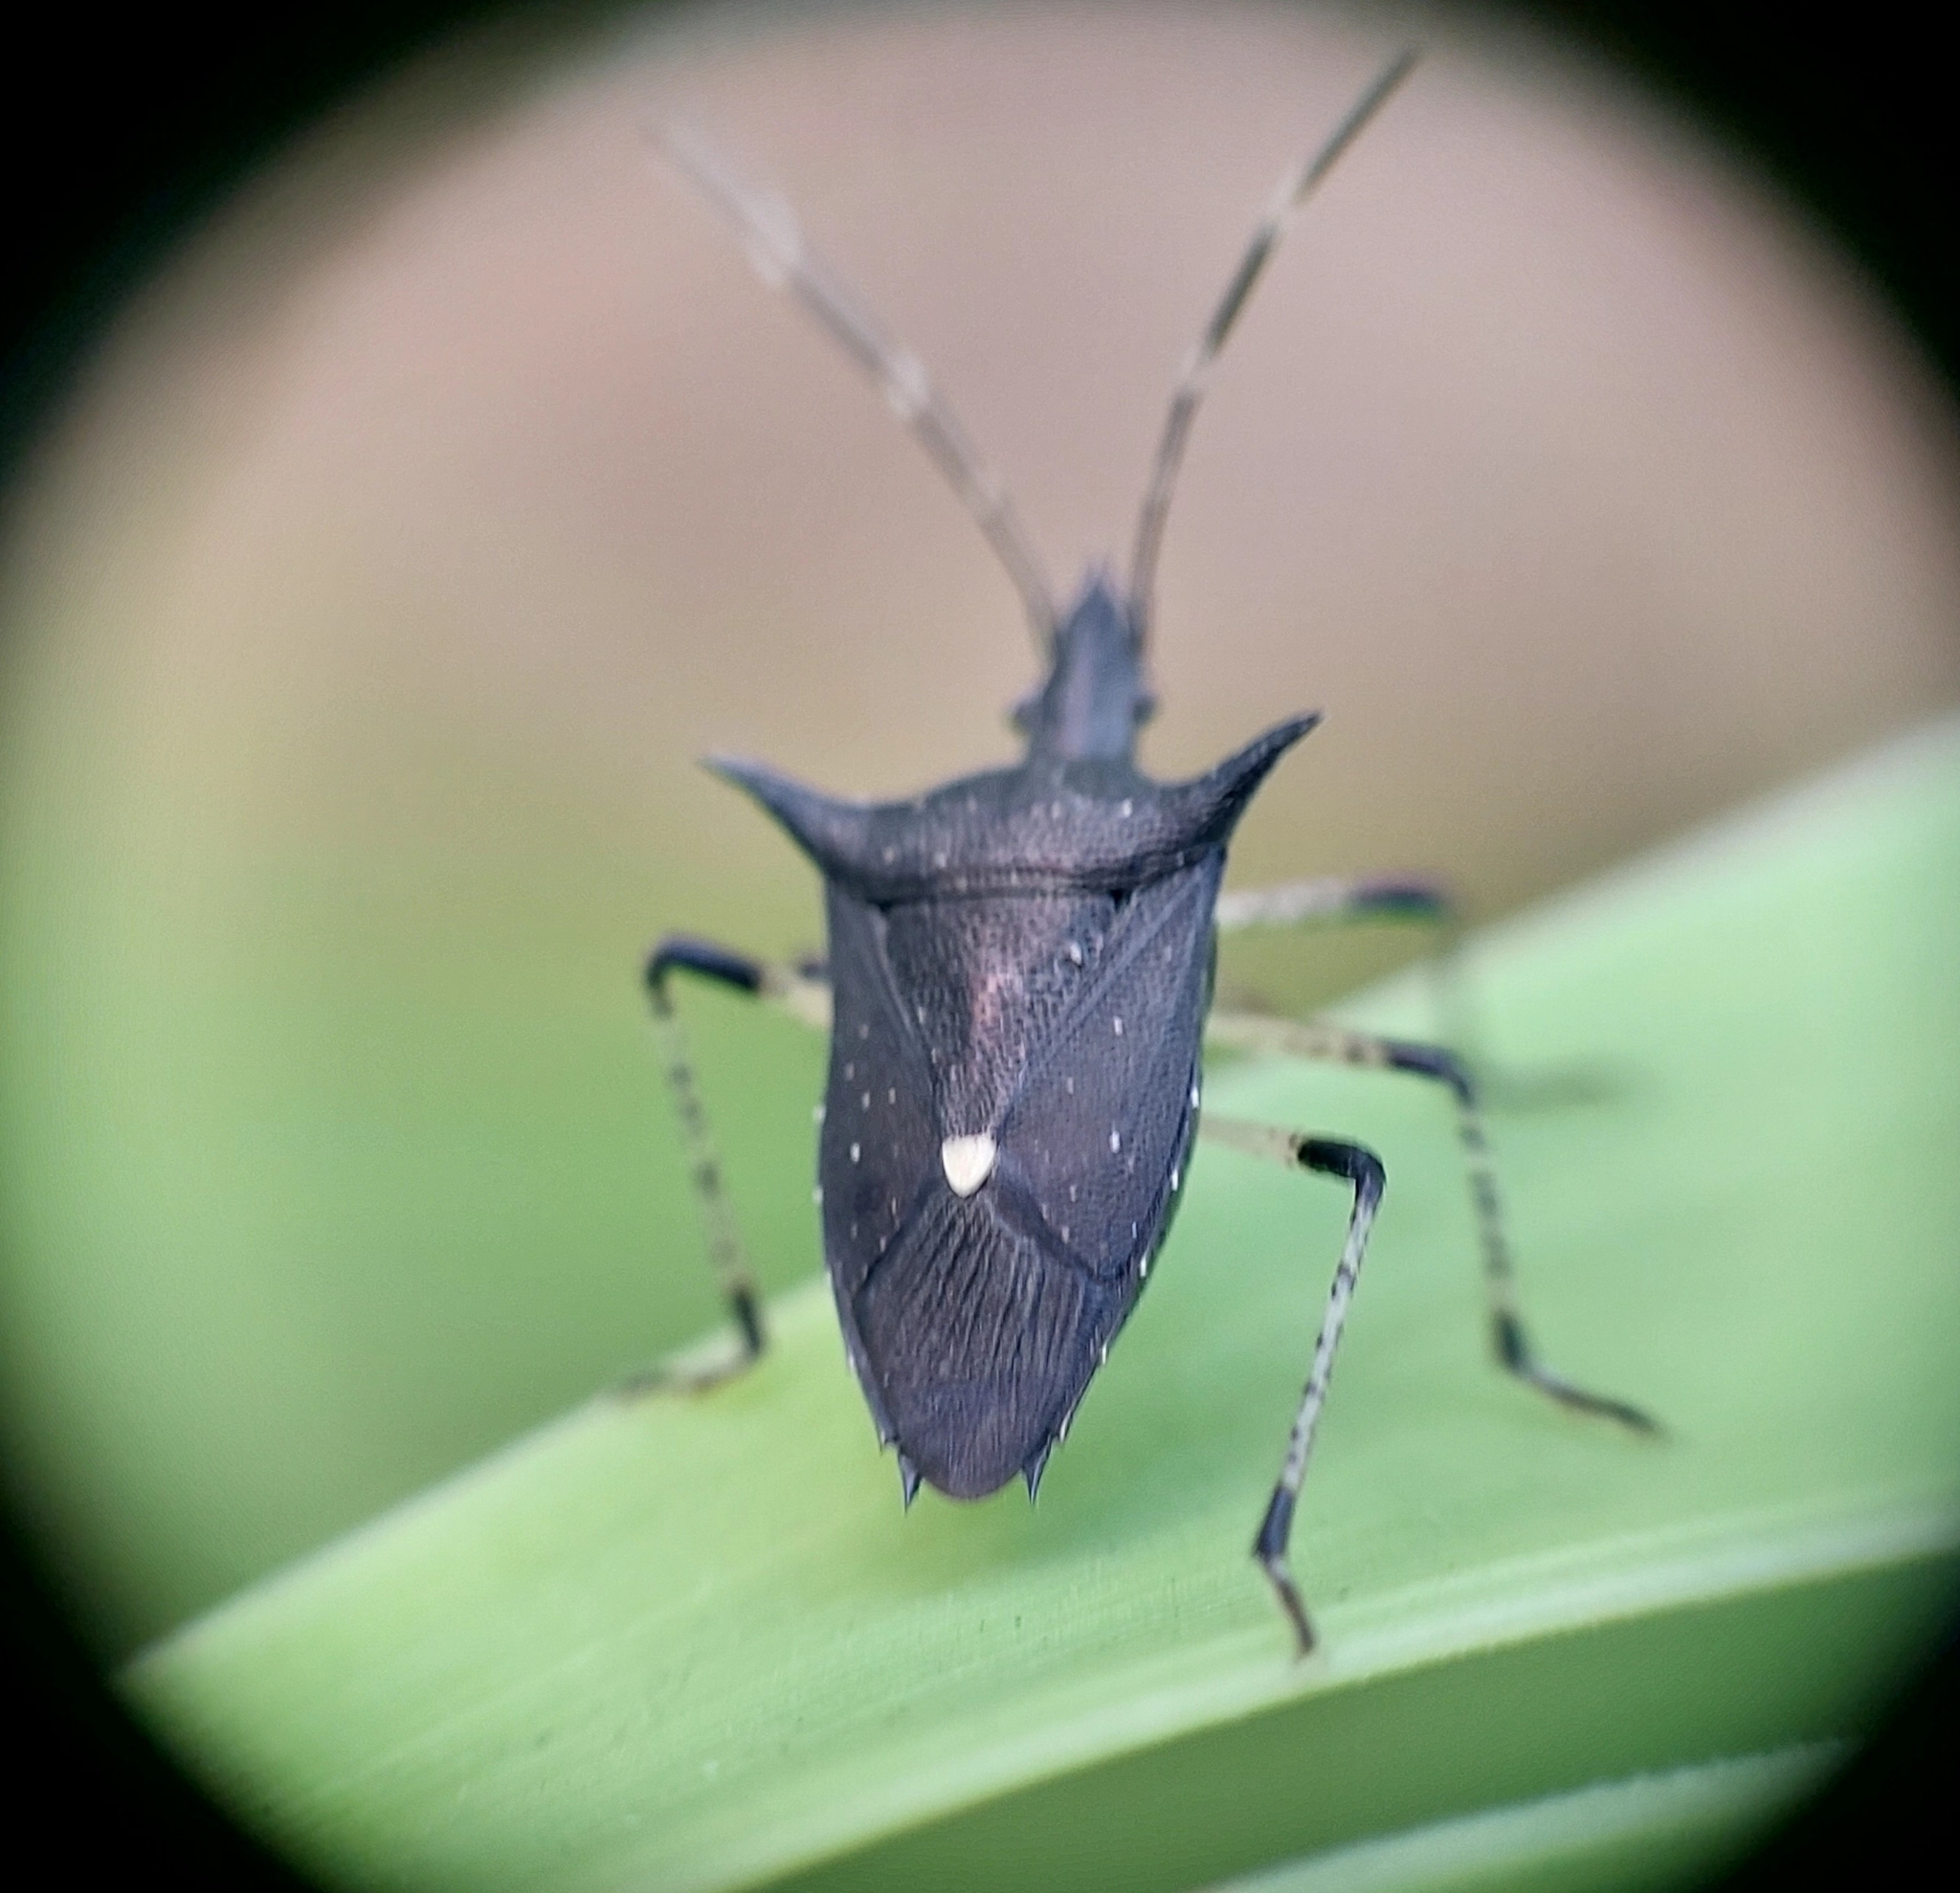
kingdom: Animalia
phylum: Arthropoda
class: Insecta
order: Hemiptera
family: Pentatomidae
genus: Proxys
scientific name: Proxys punctulatus
